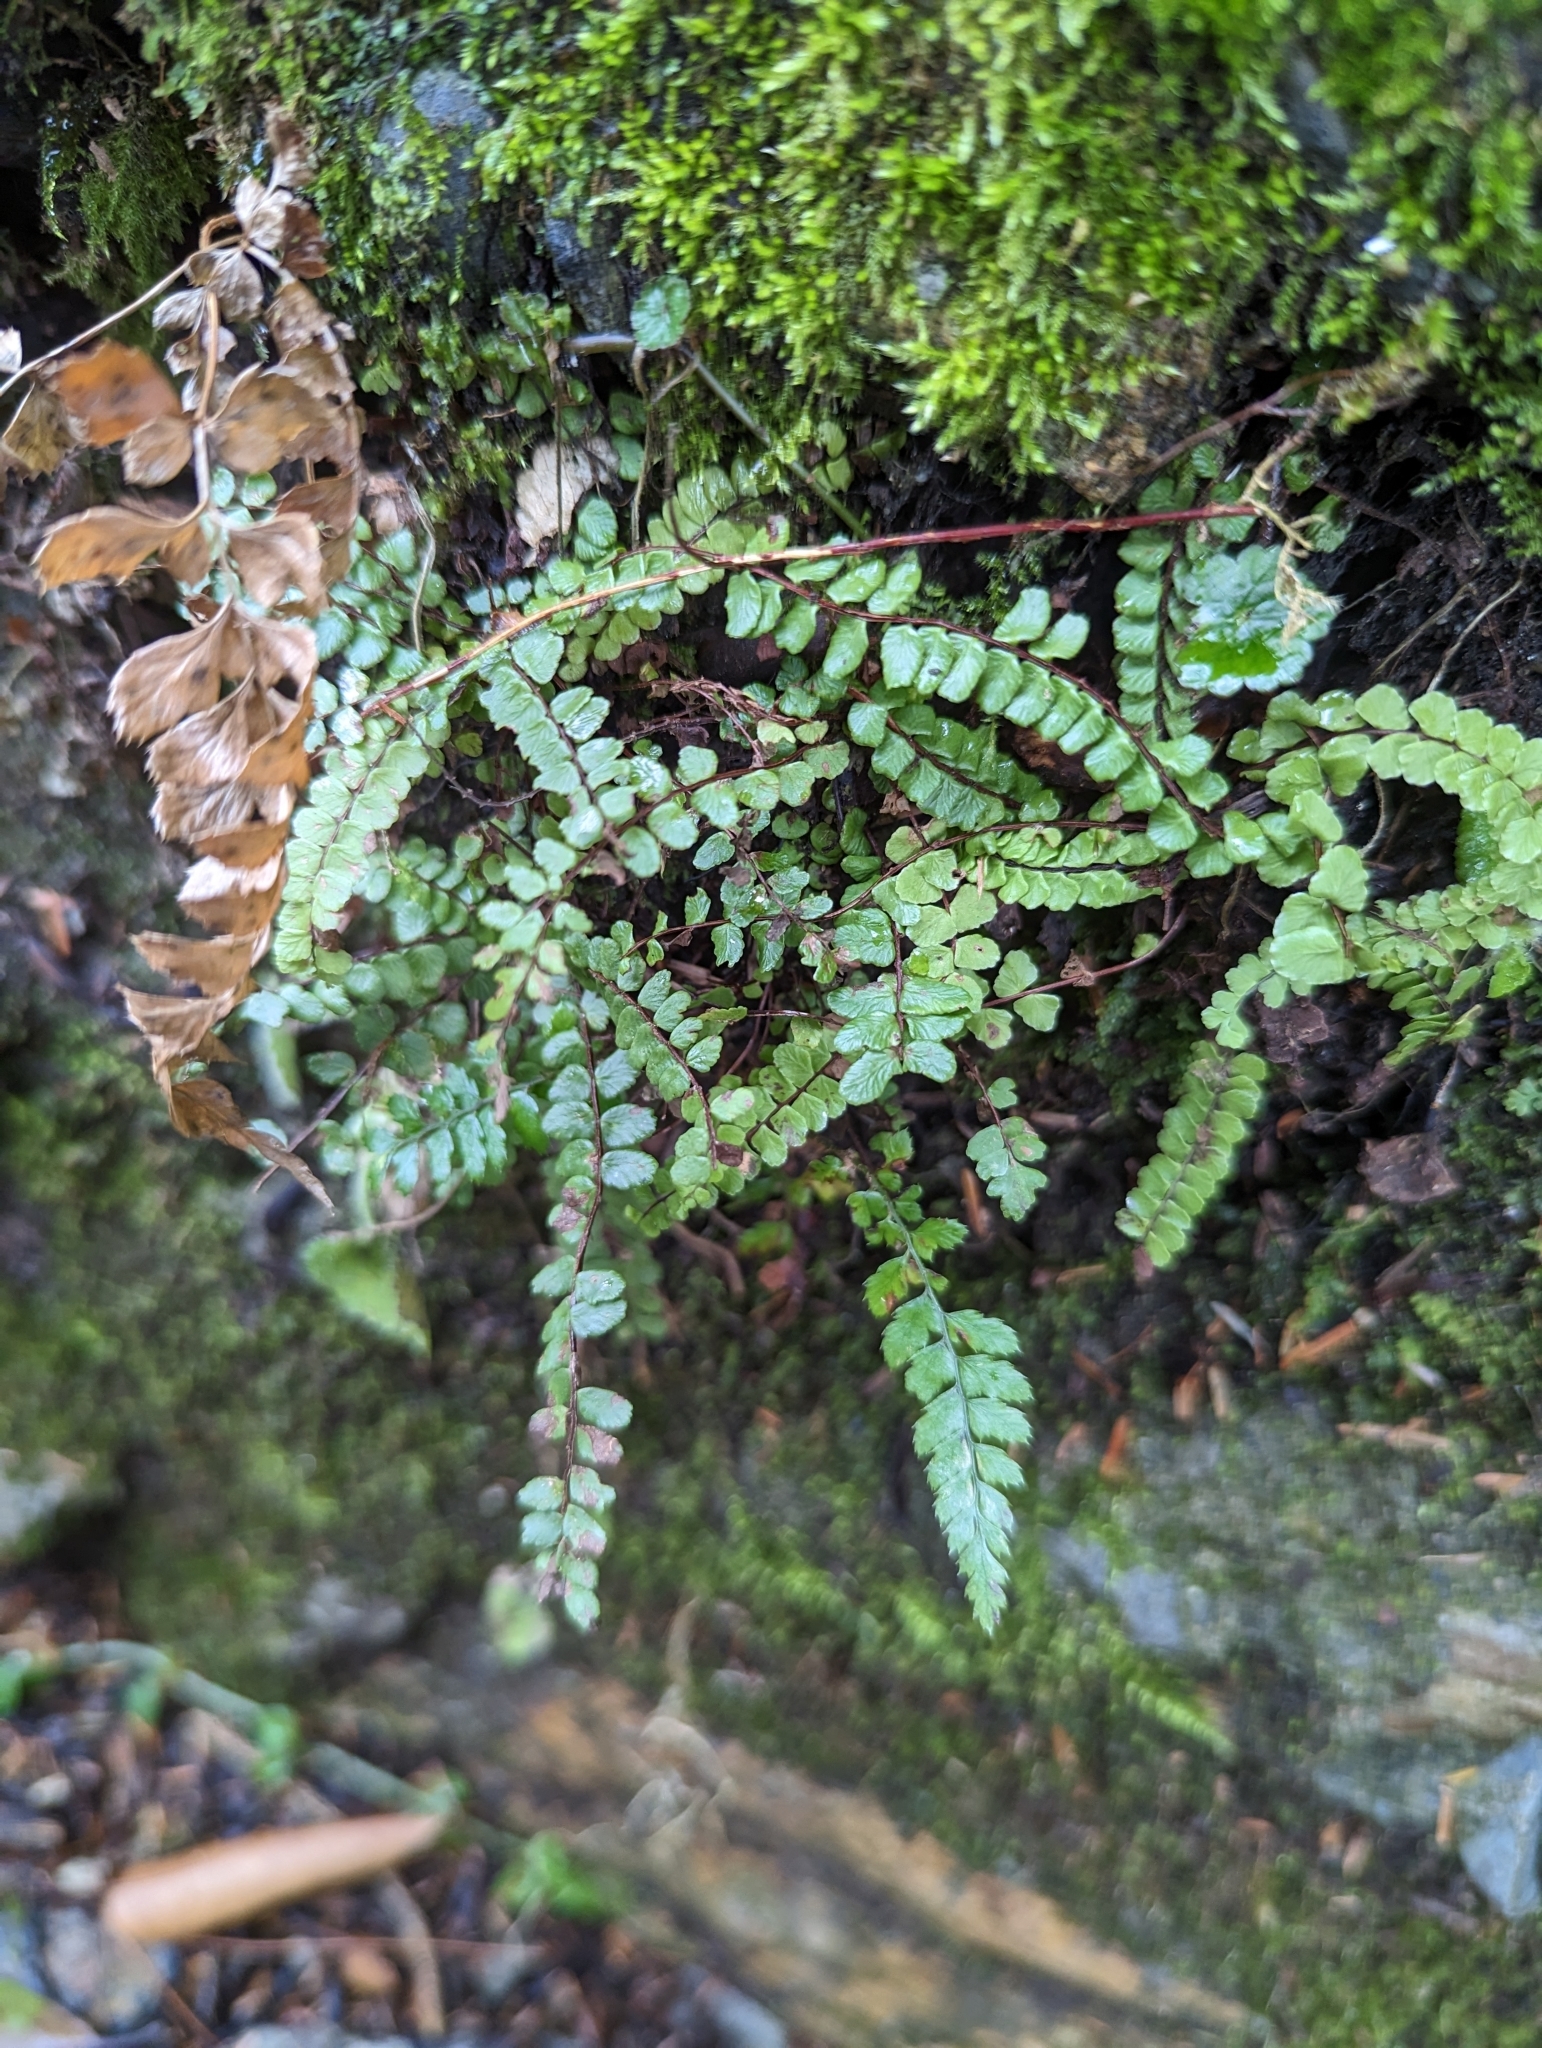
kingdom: Plantae
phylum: Tracheophyta
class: Polypodiopsida
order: Polypodiales
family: Aspleniaceae
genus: Asplenium
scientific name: Asplenium trichomanes
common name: Maidenhair spleenwort
